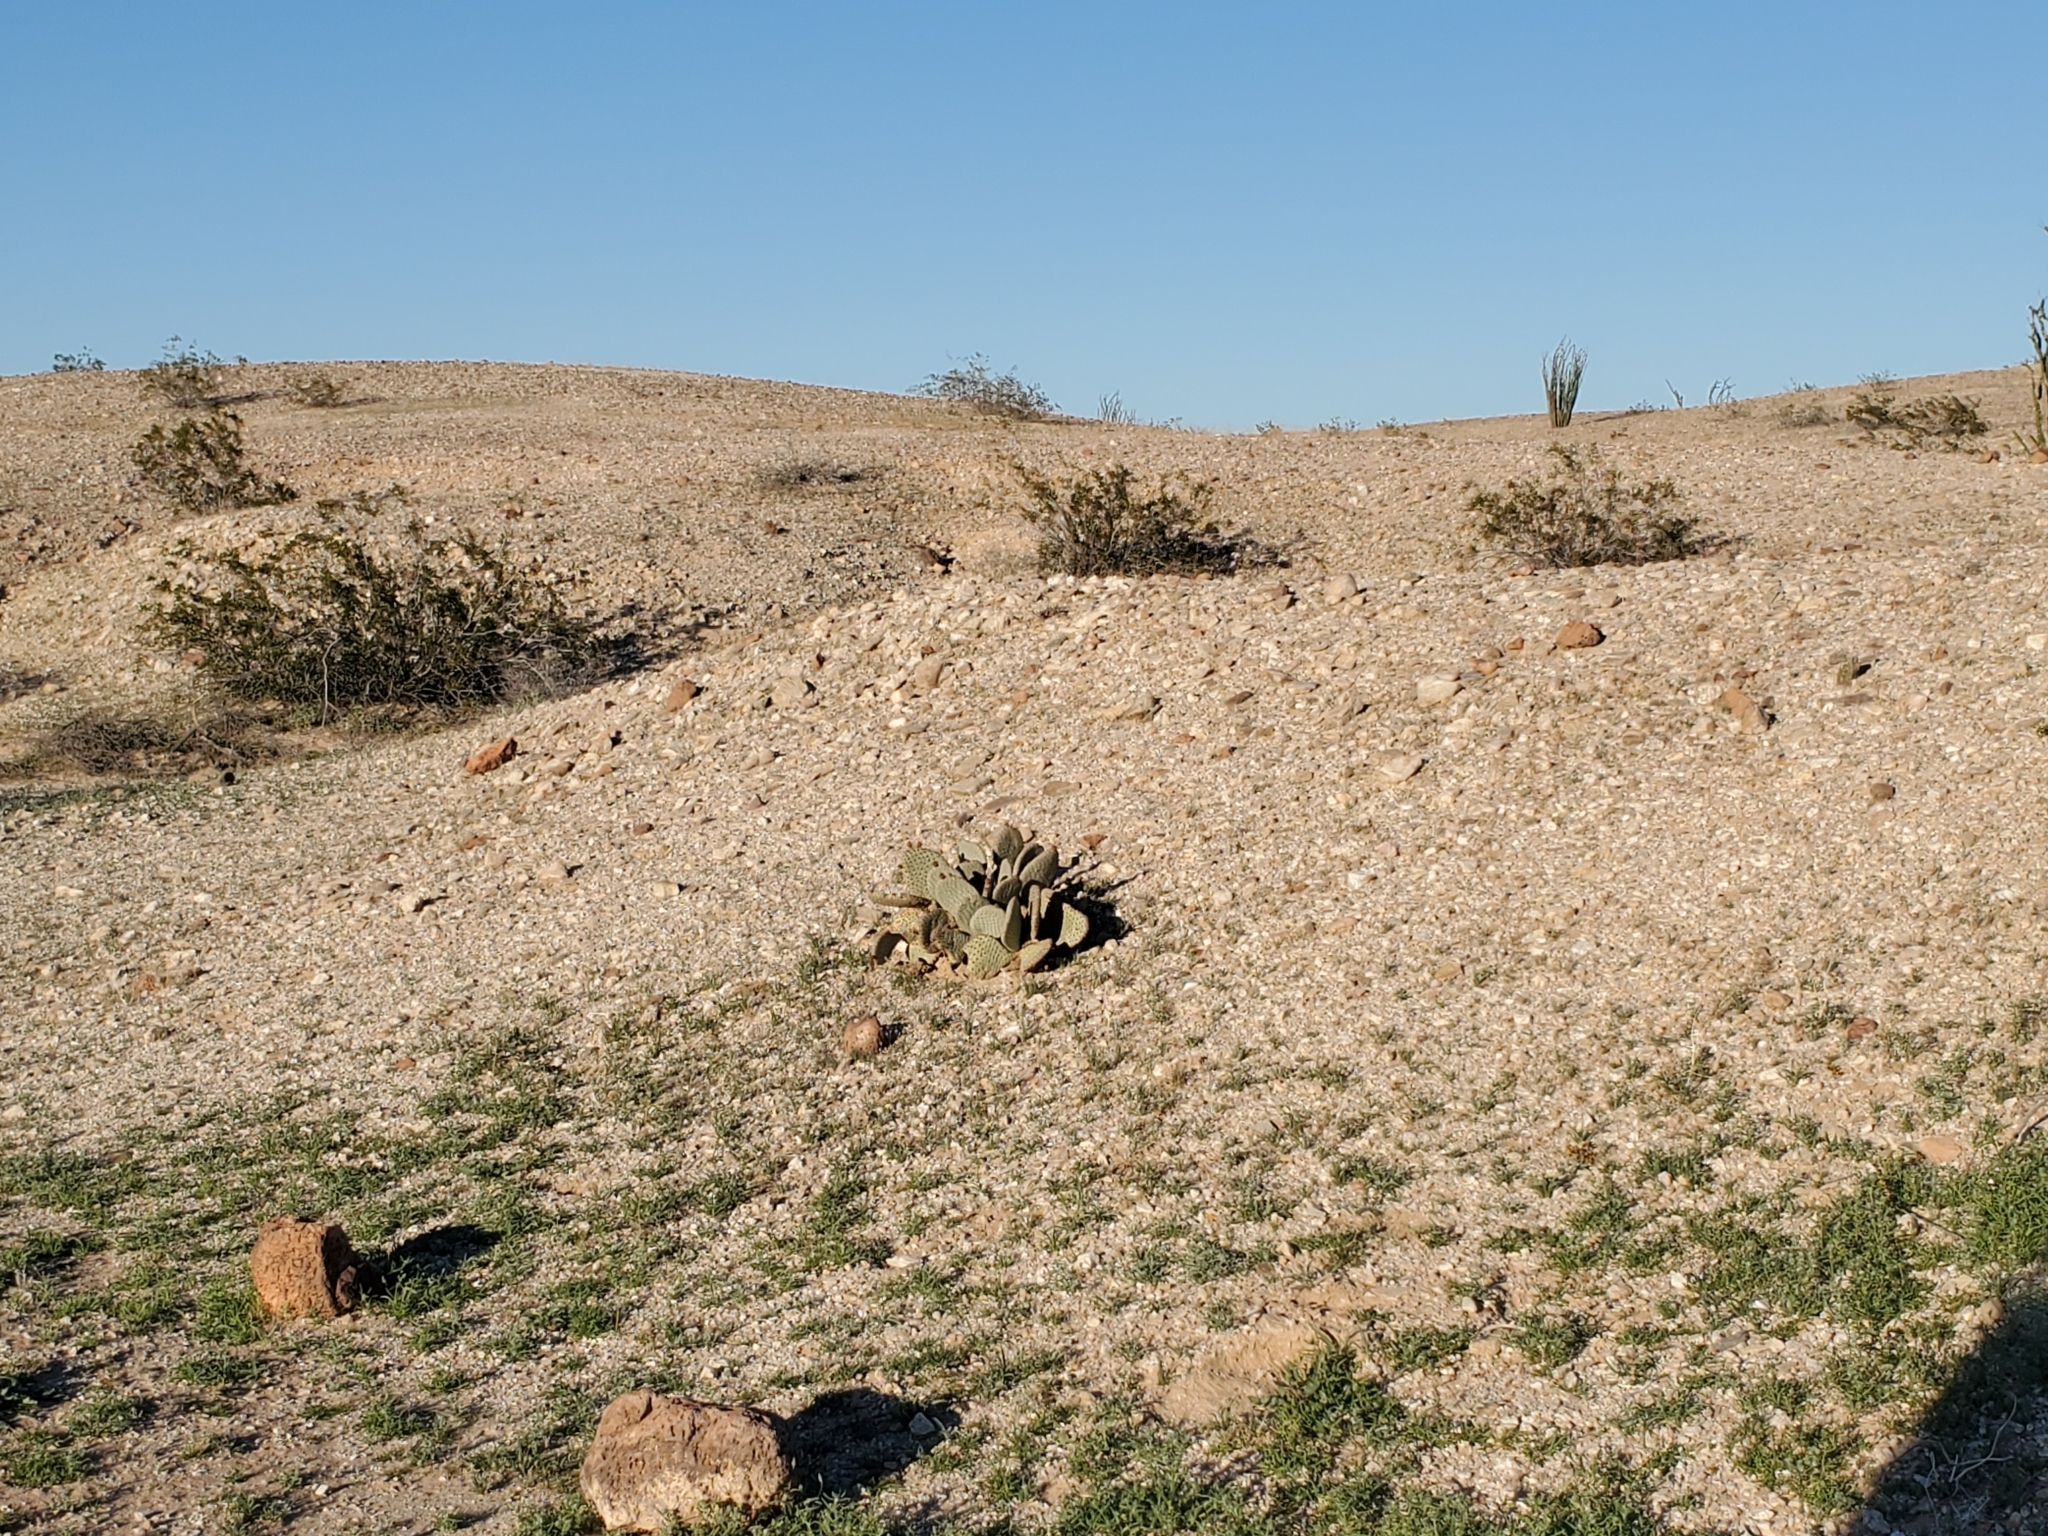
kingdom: Plantae
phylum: Tracheophyta
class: Magnoliopsida
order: Caryophyllales
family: Cactaceae
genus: Opuntia
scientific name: Opuntia basilaris
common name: Beavertail prickly-pear
